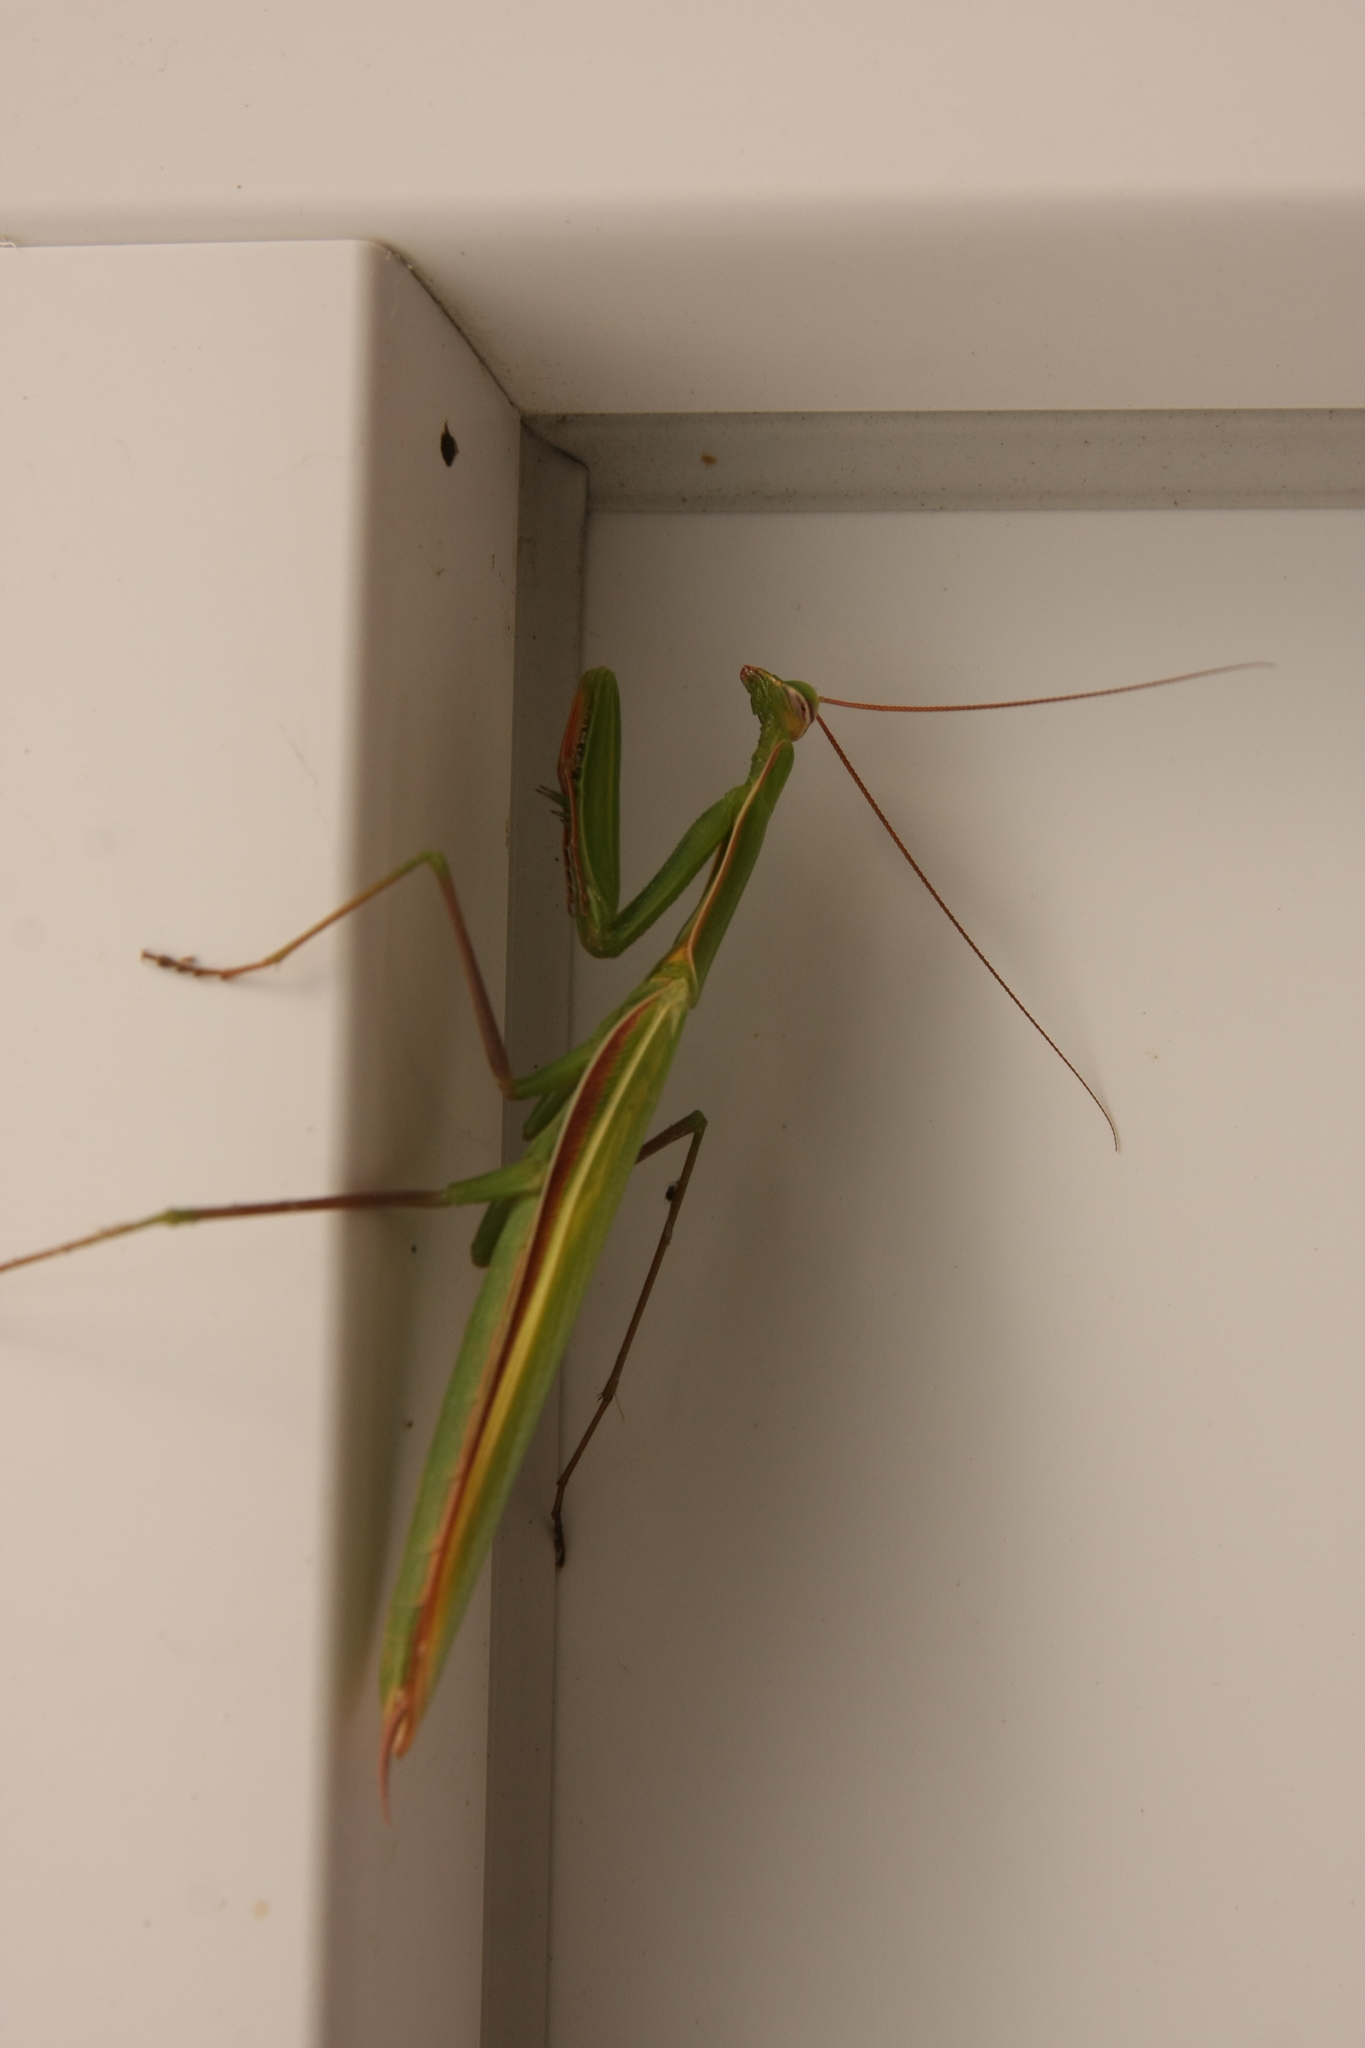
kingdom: Animalia
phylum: Arthropoda
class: Insecta
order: Mantodea
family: Mantidae
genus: Mantis
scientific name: Mantis religiosa
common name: Praying mantis
